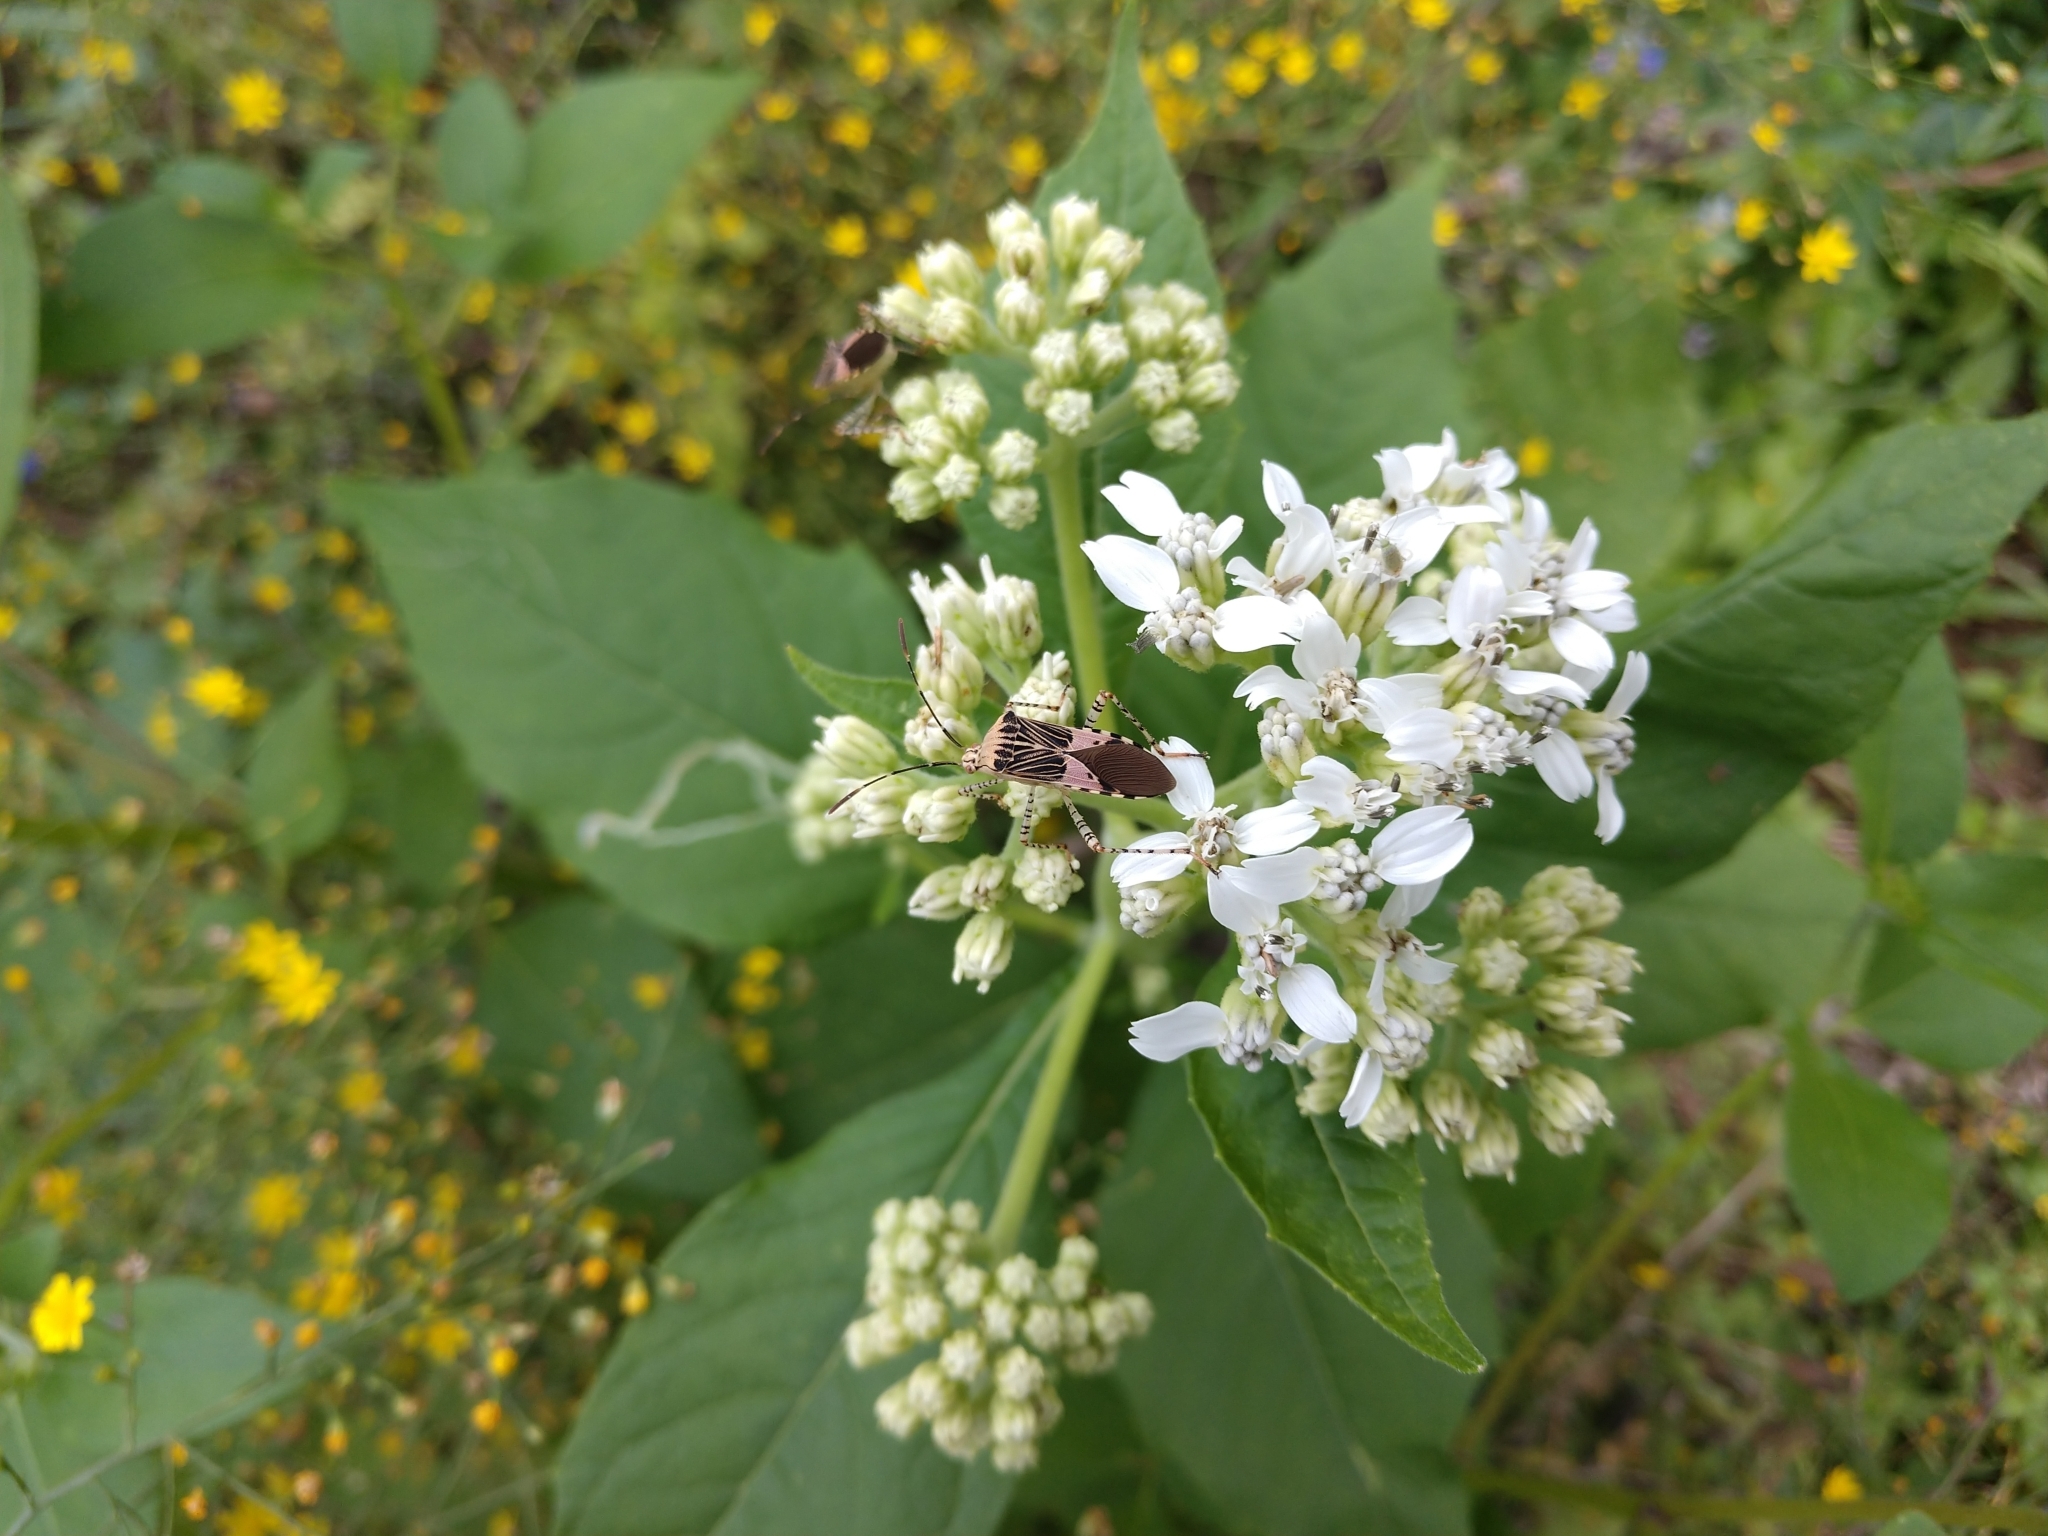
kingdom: Animalia
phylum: Arthropoda
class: Insecta
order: Hemiptera
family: Coreidae
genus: Hypselonotus
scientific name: Hypselonotus punctiventris
